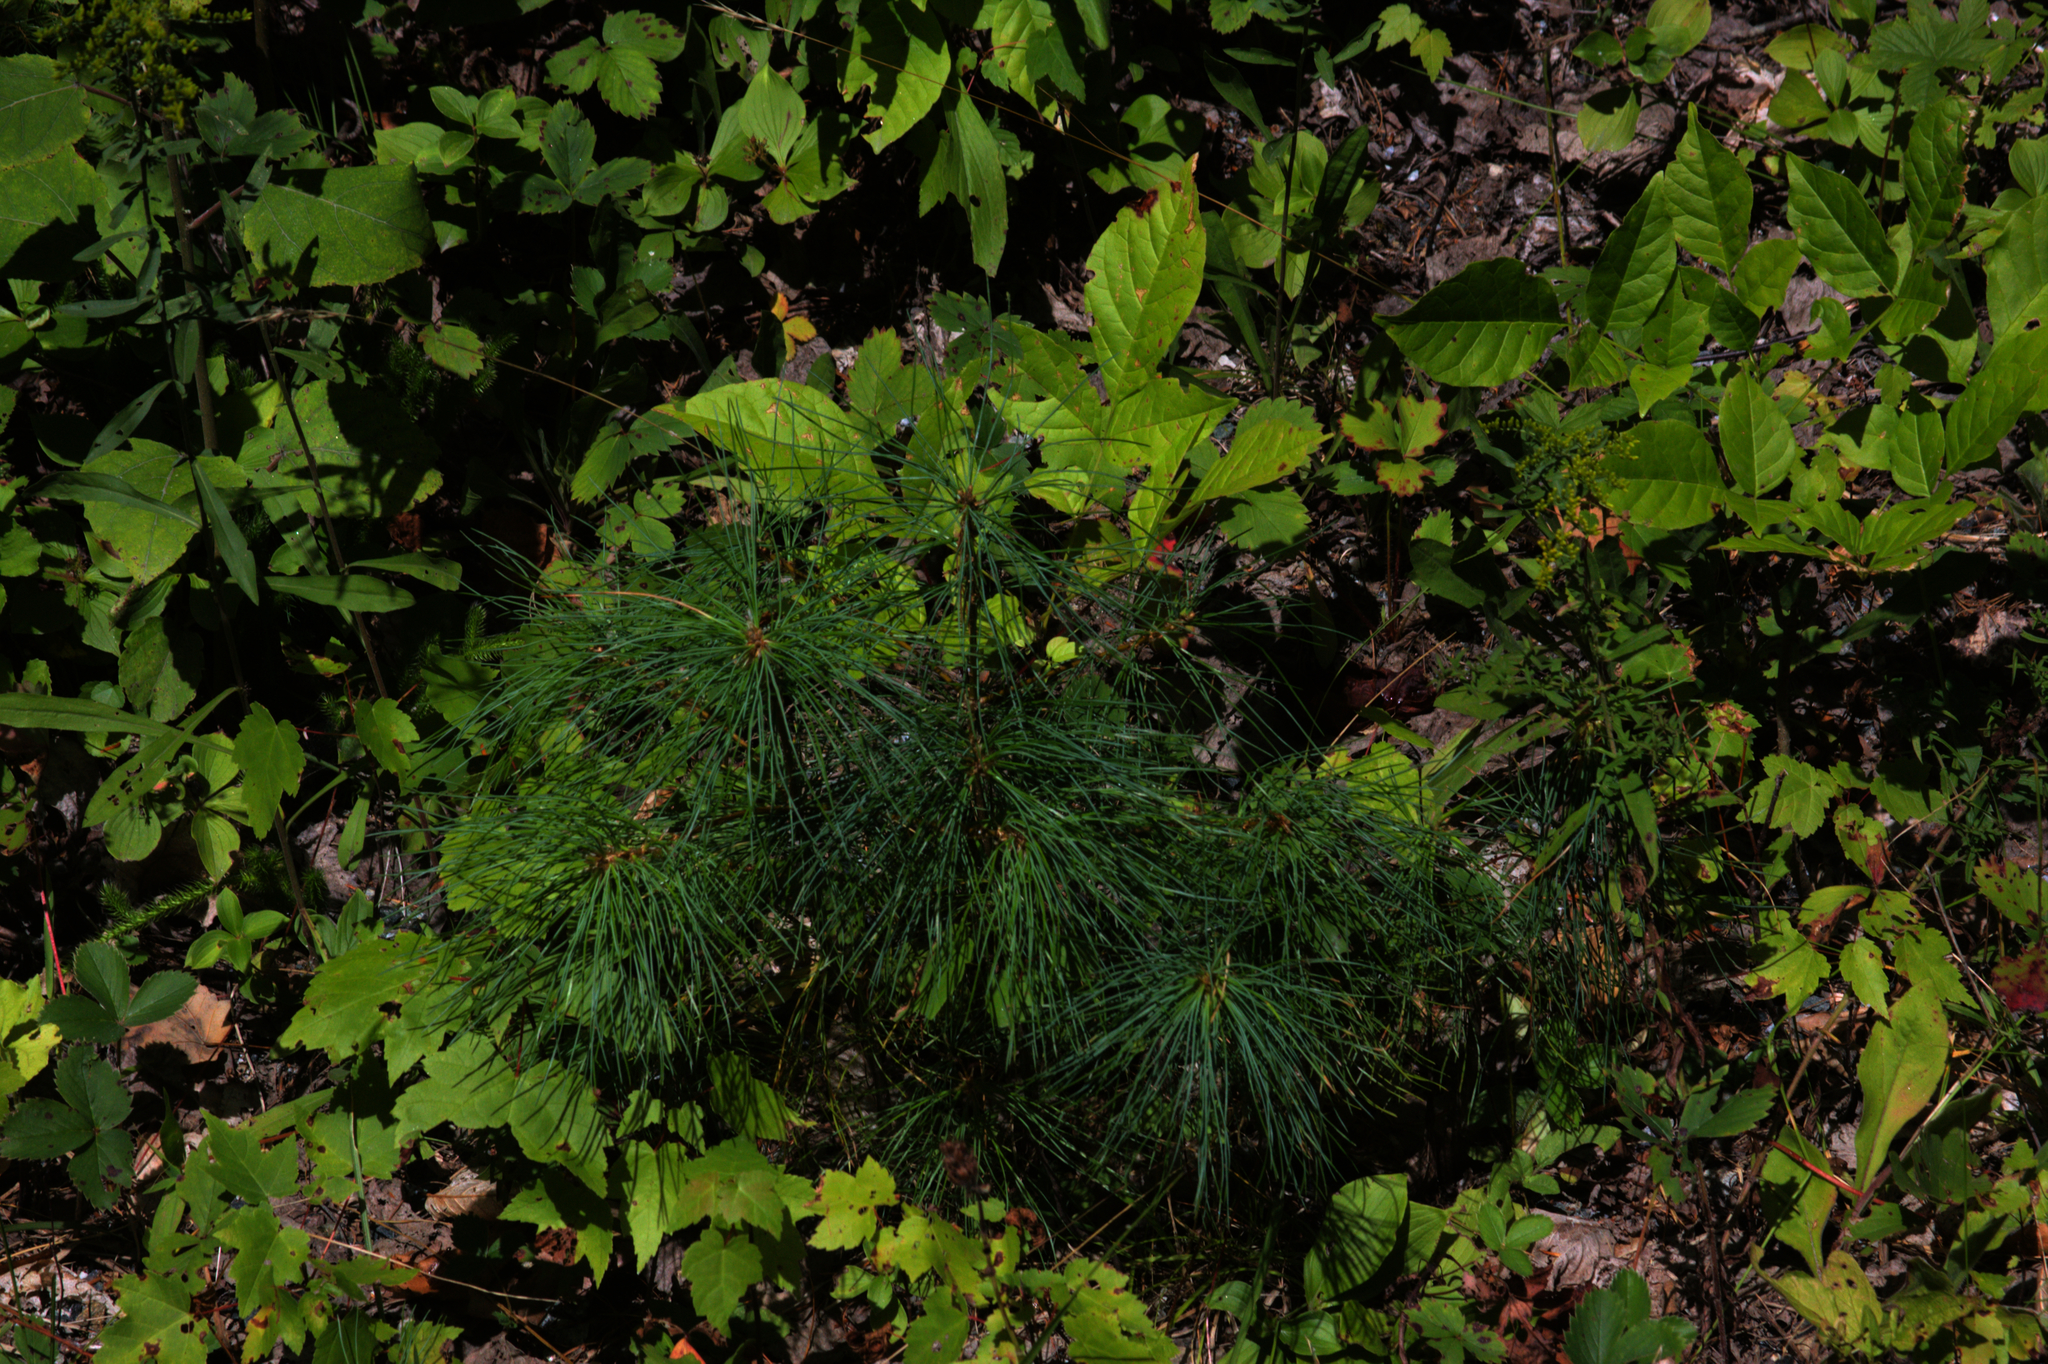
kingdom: Plantae
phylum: Tracheophyta
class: Pinopsida
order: Pinales
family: Pinaceae
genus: Pinus
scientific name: Pinus strobus
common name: Weymouth pine
